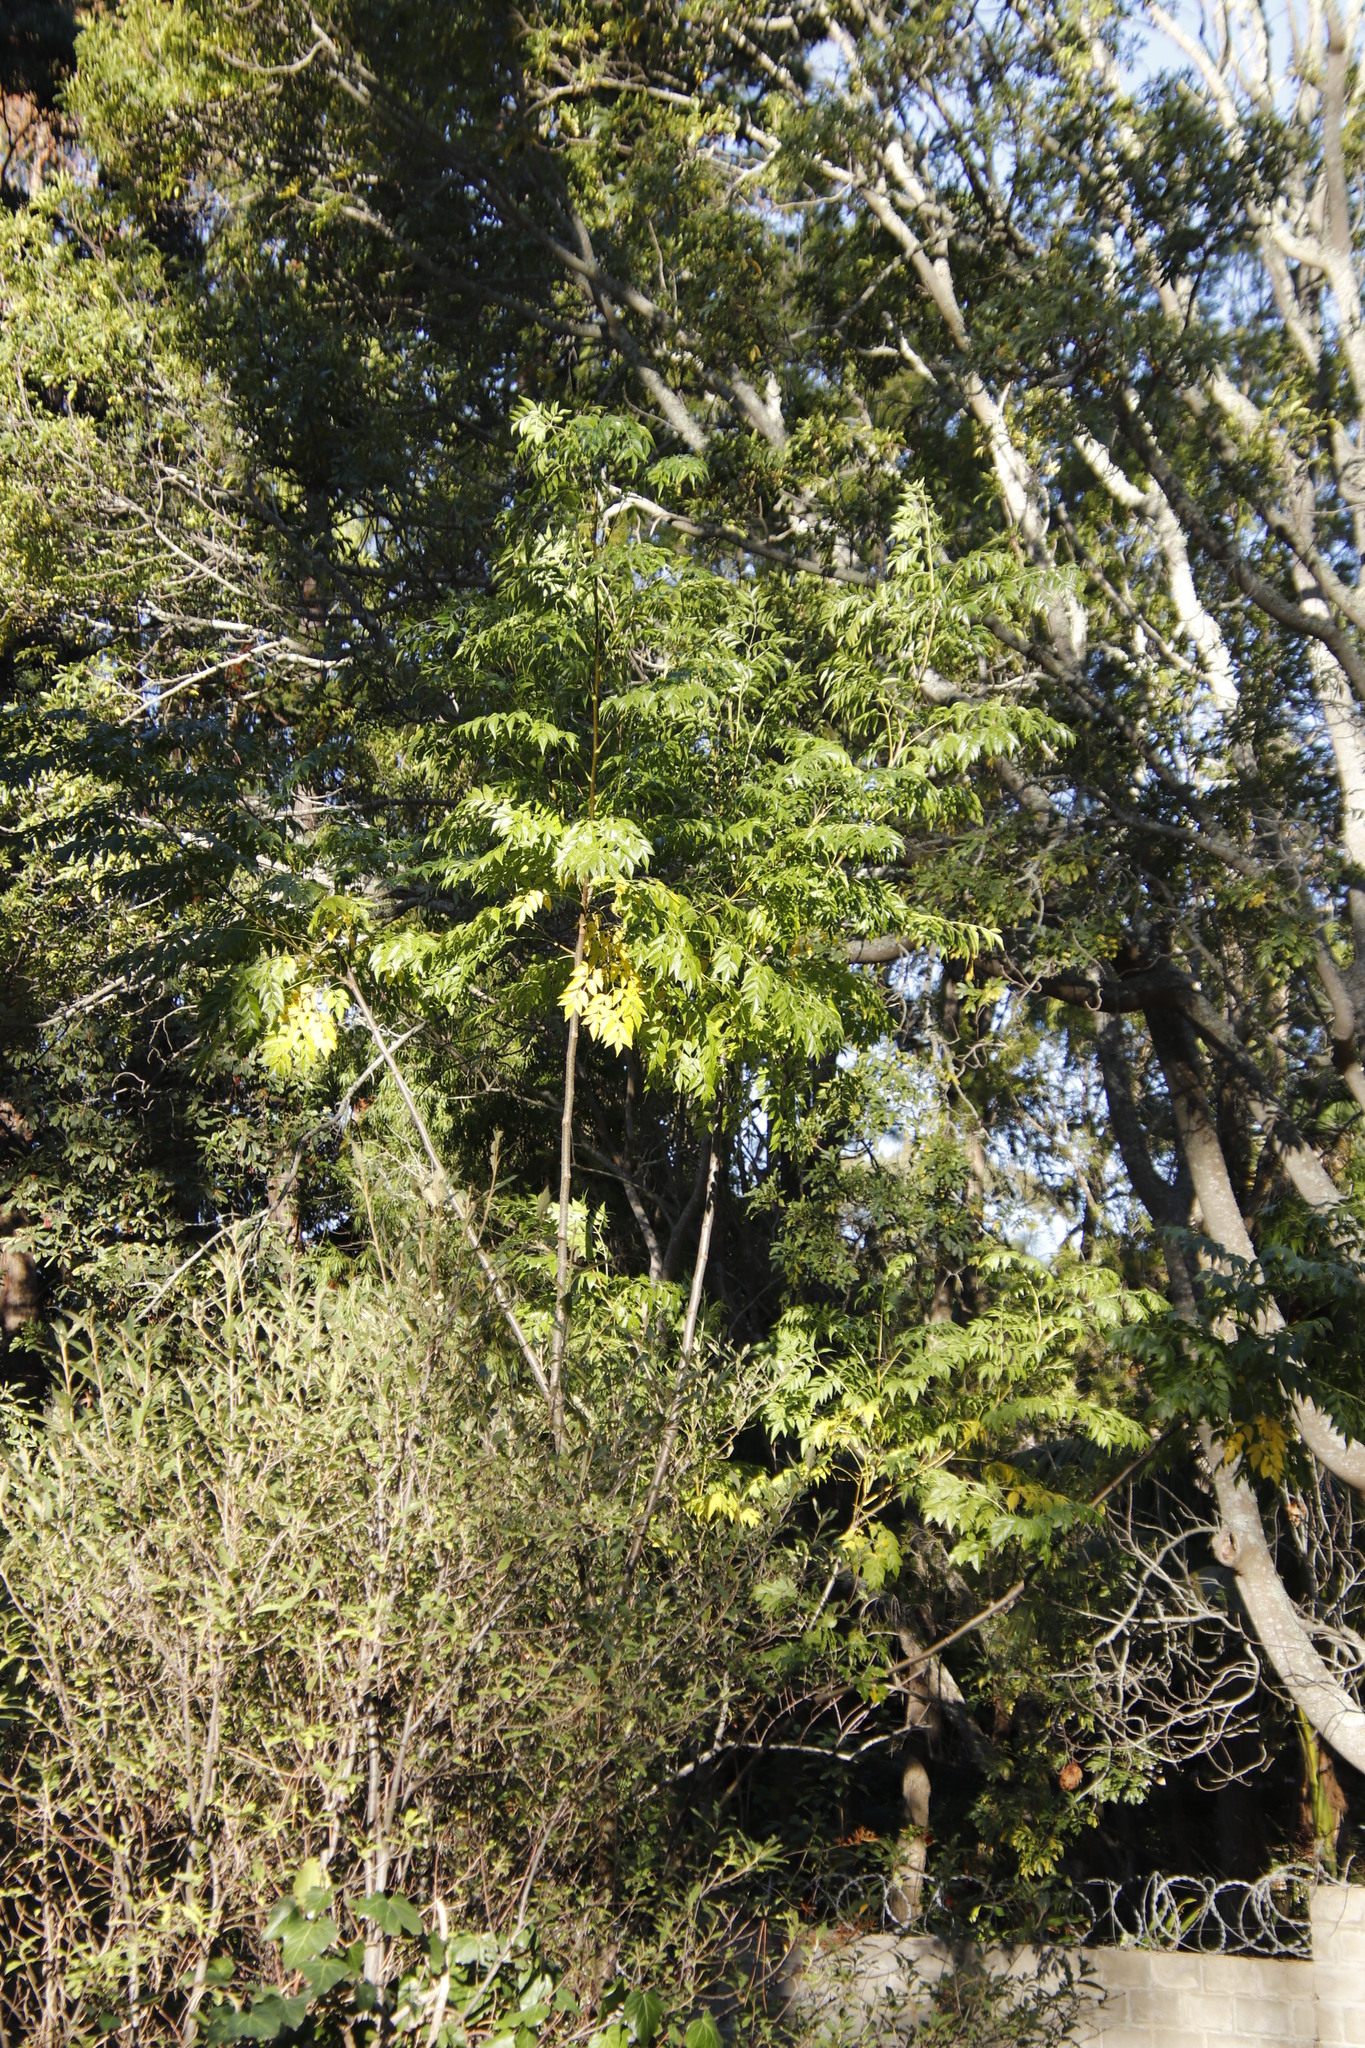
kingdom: Plantae
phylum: Tracheophyta
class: Magnoliopsida
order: Sapindales
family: Meliaceae
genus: Melia
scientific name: Melia azedarach
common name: Chinaberrytree
